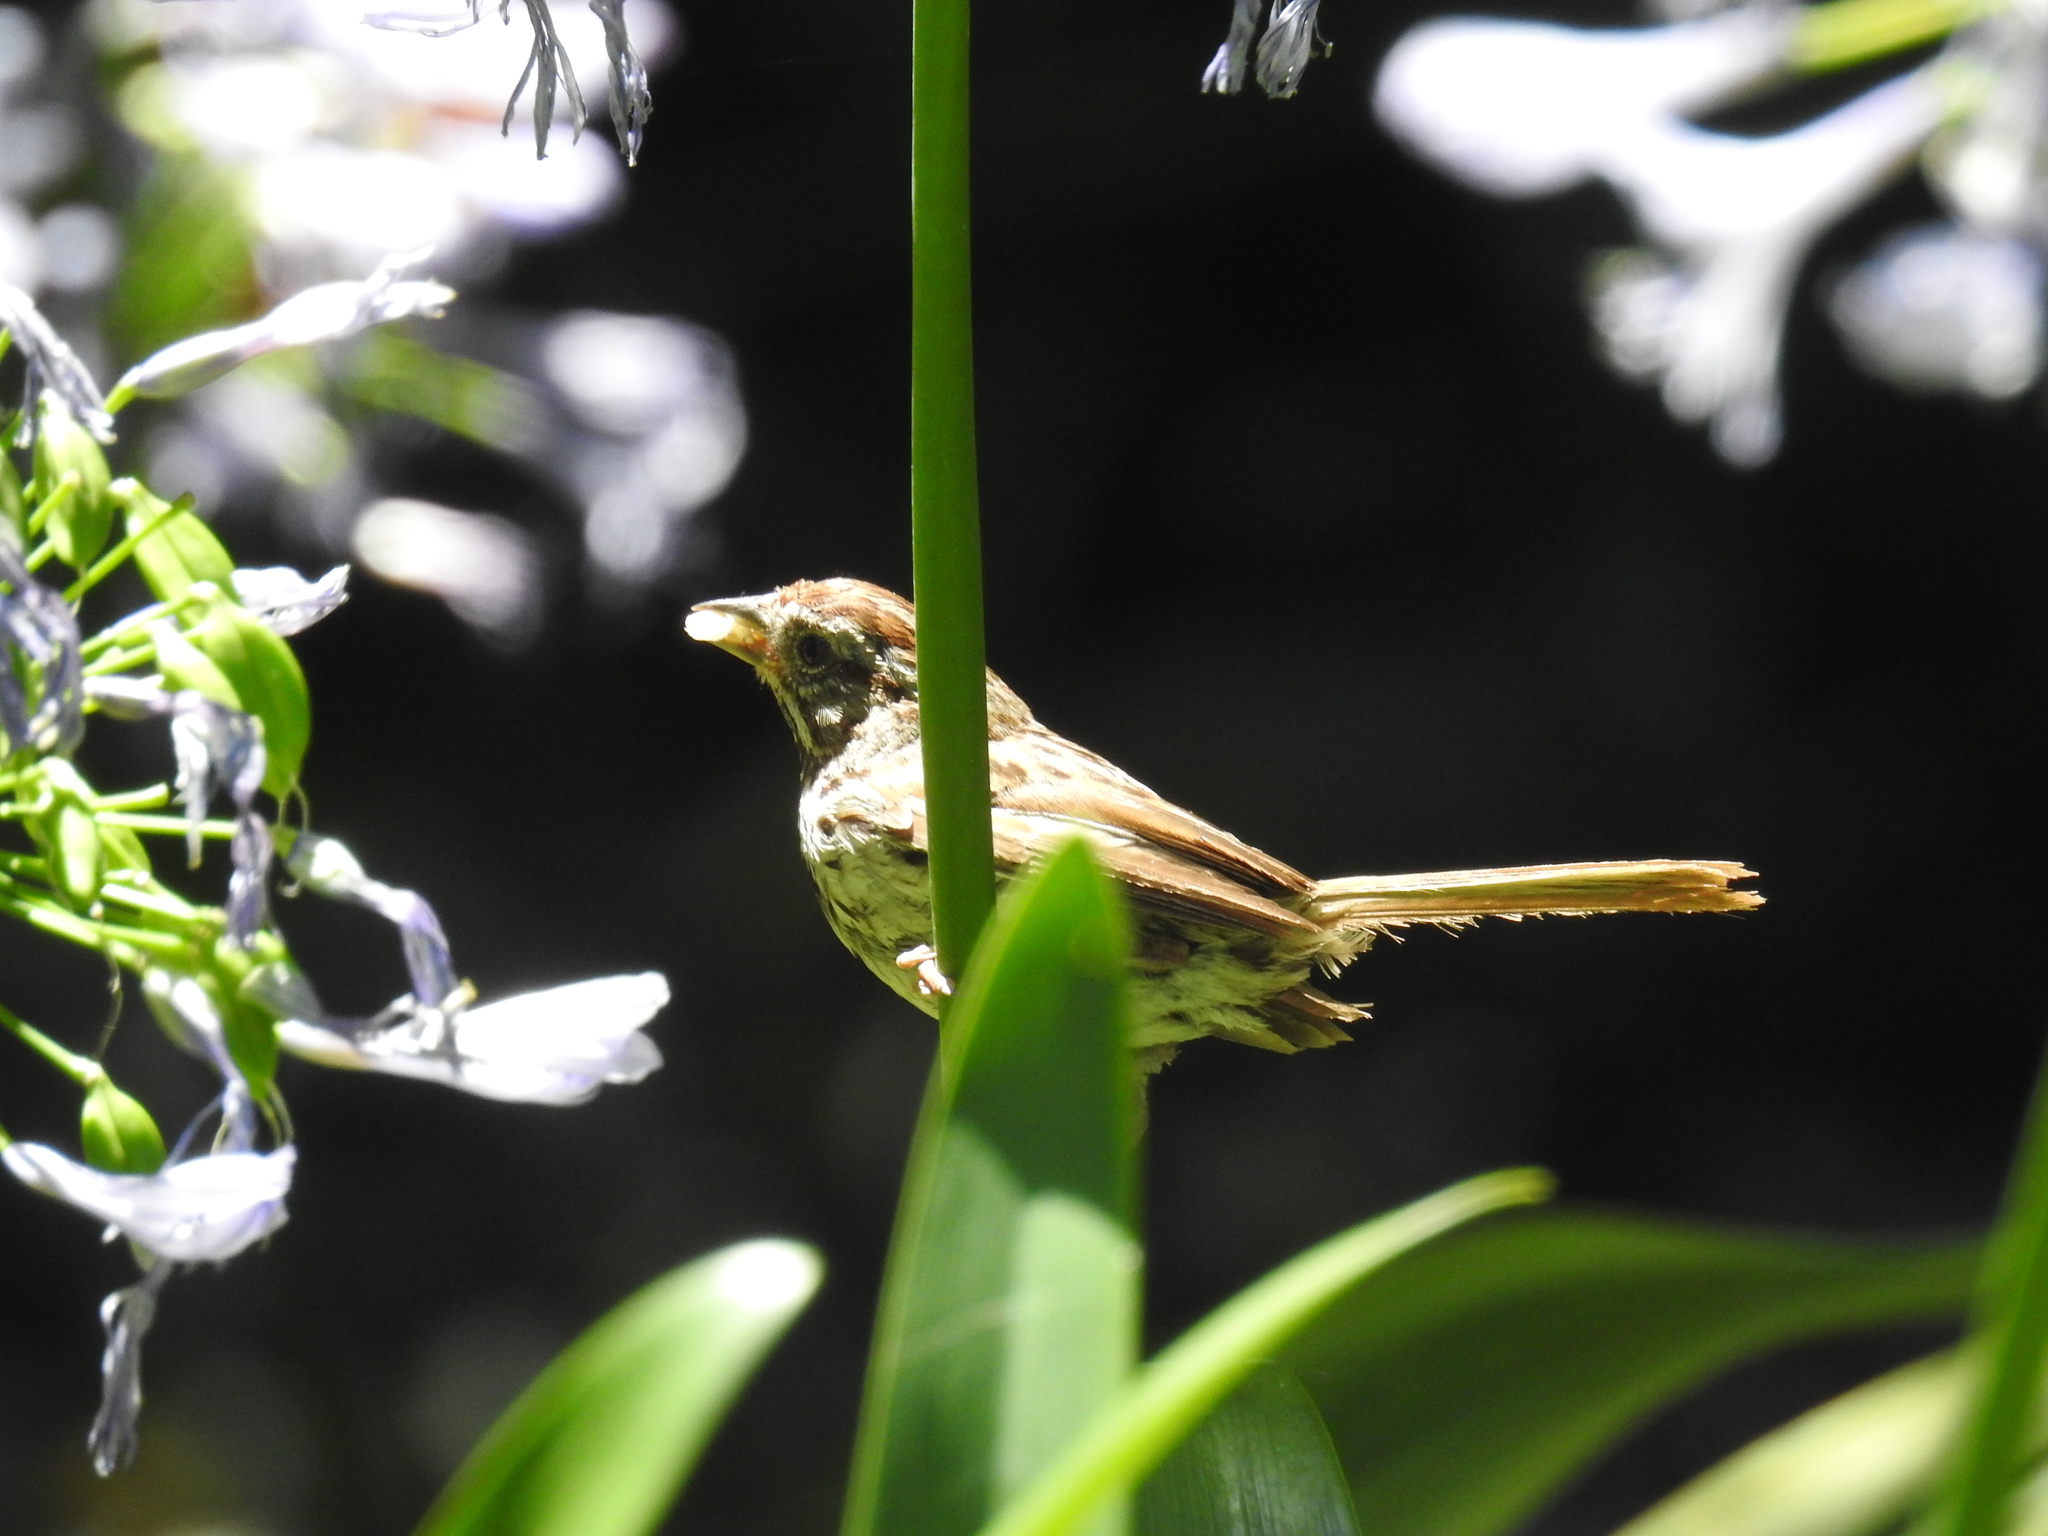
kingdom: Animalia
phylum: Chordata
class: Aves
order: Passeriformes
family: Passerellidae
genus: Melospiza
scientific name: Melospiza melodia
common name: Song sparrow
